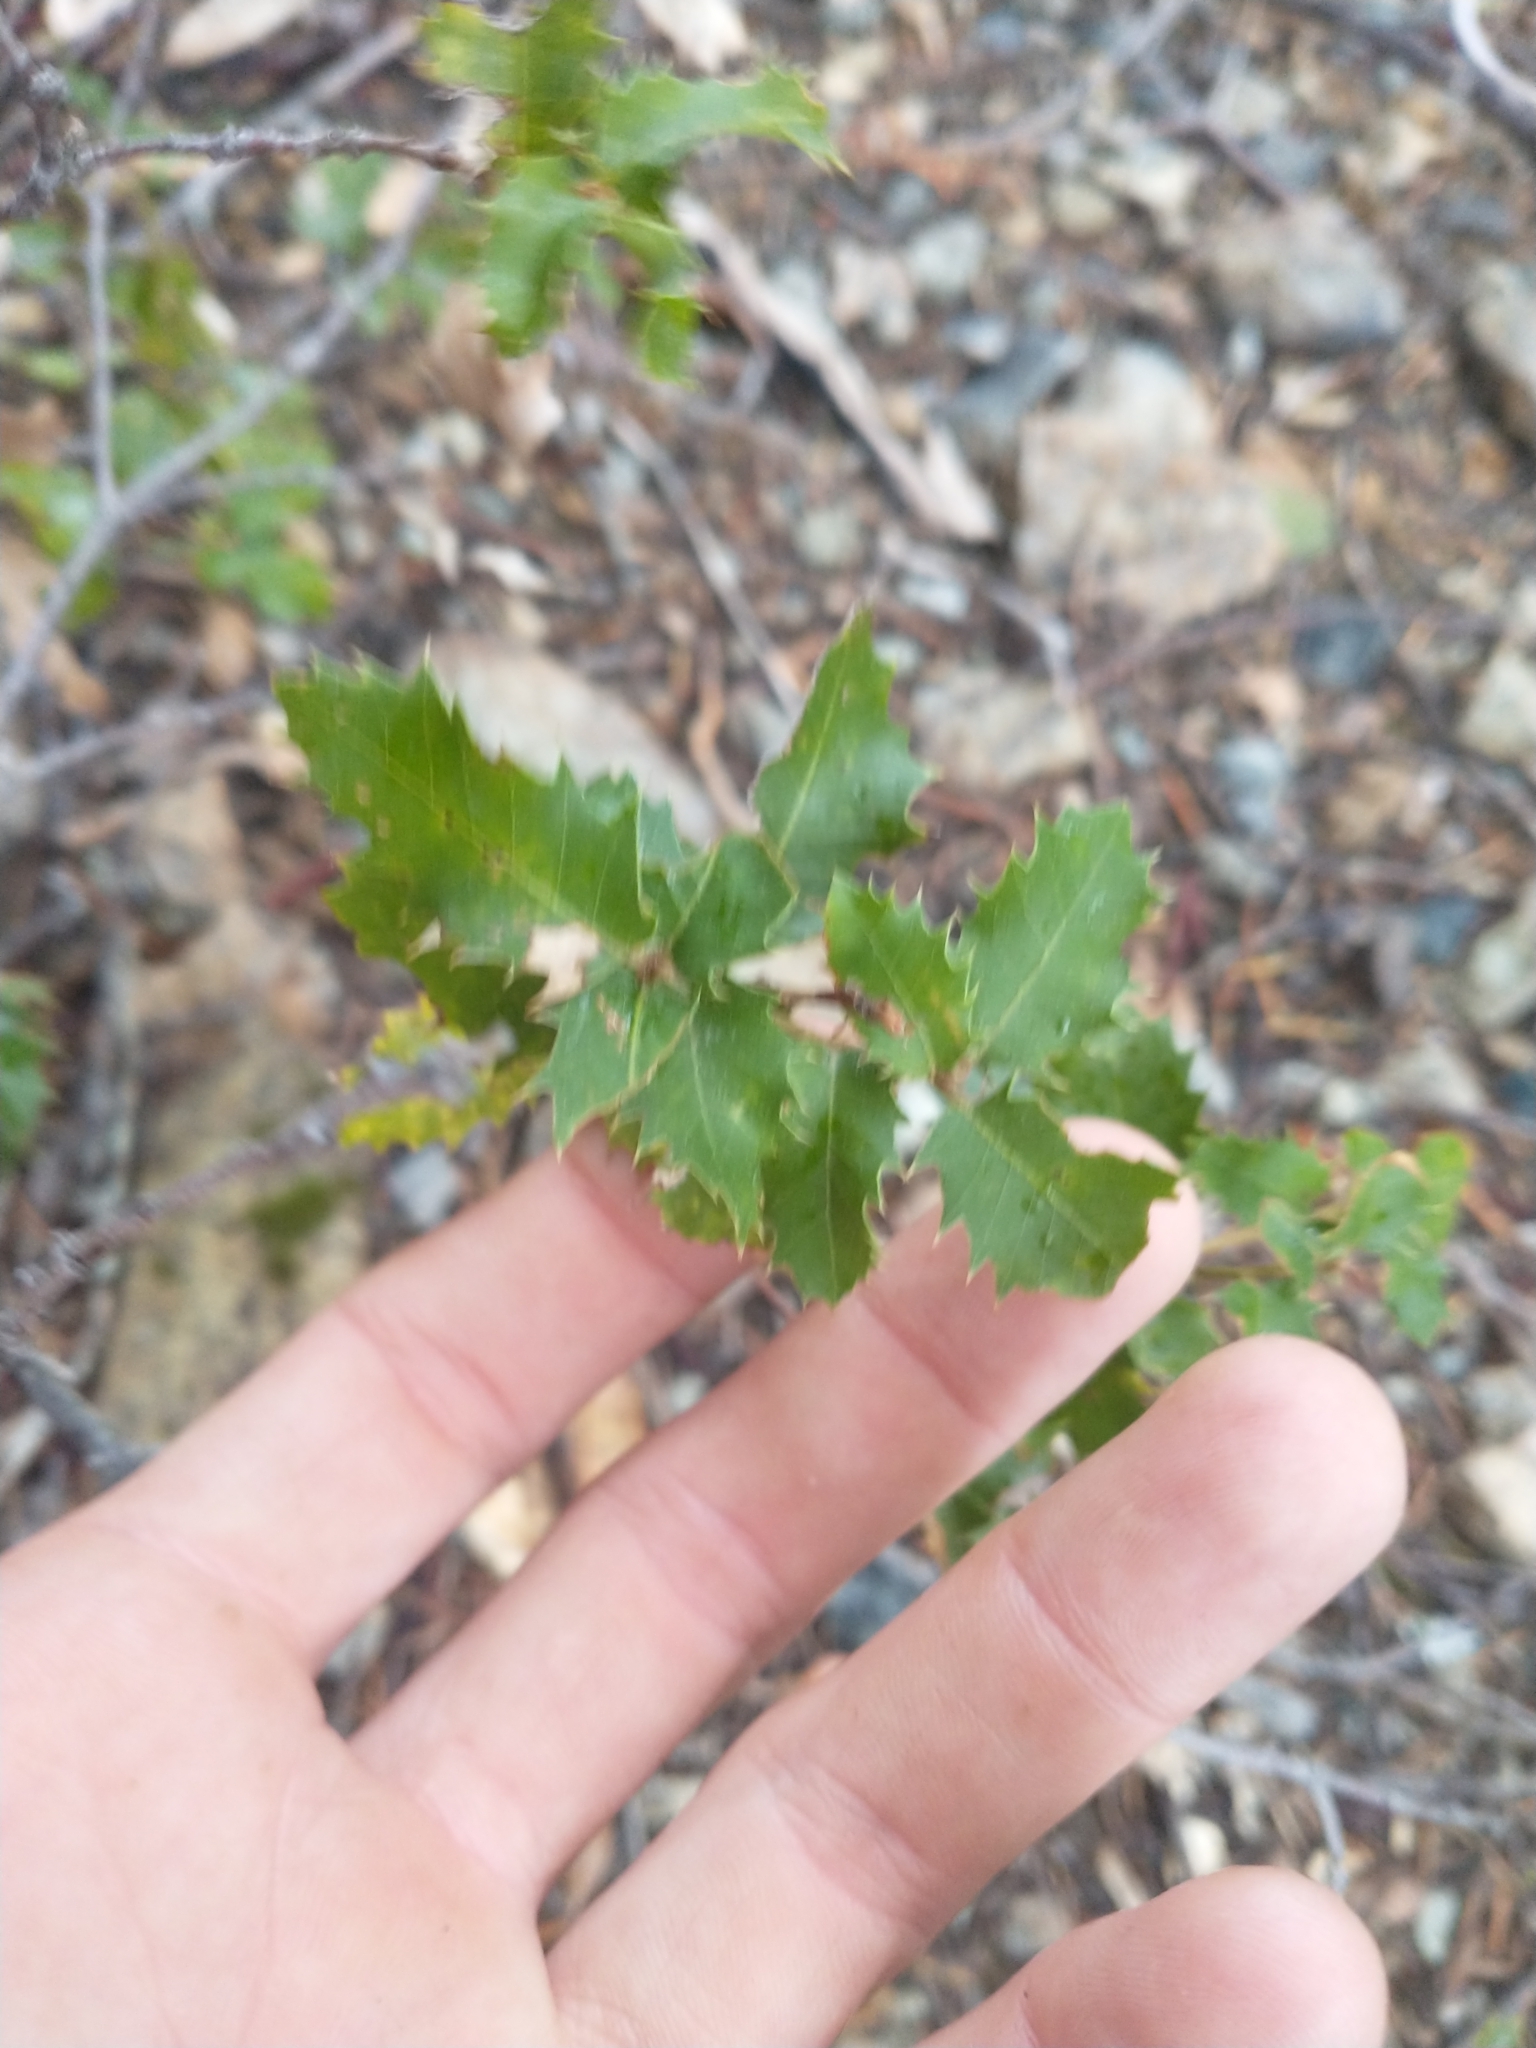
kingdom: Plantae
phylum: Tracheophyta
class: Magnoliopsida
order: Fagales
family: Fagaceae
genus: Quercus
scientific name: Quercus chrysolepis
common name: Canyon live oak
